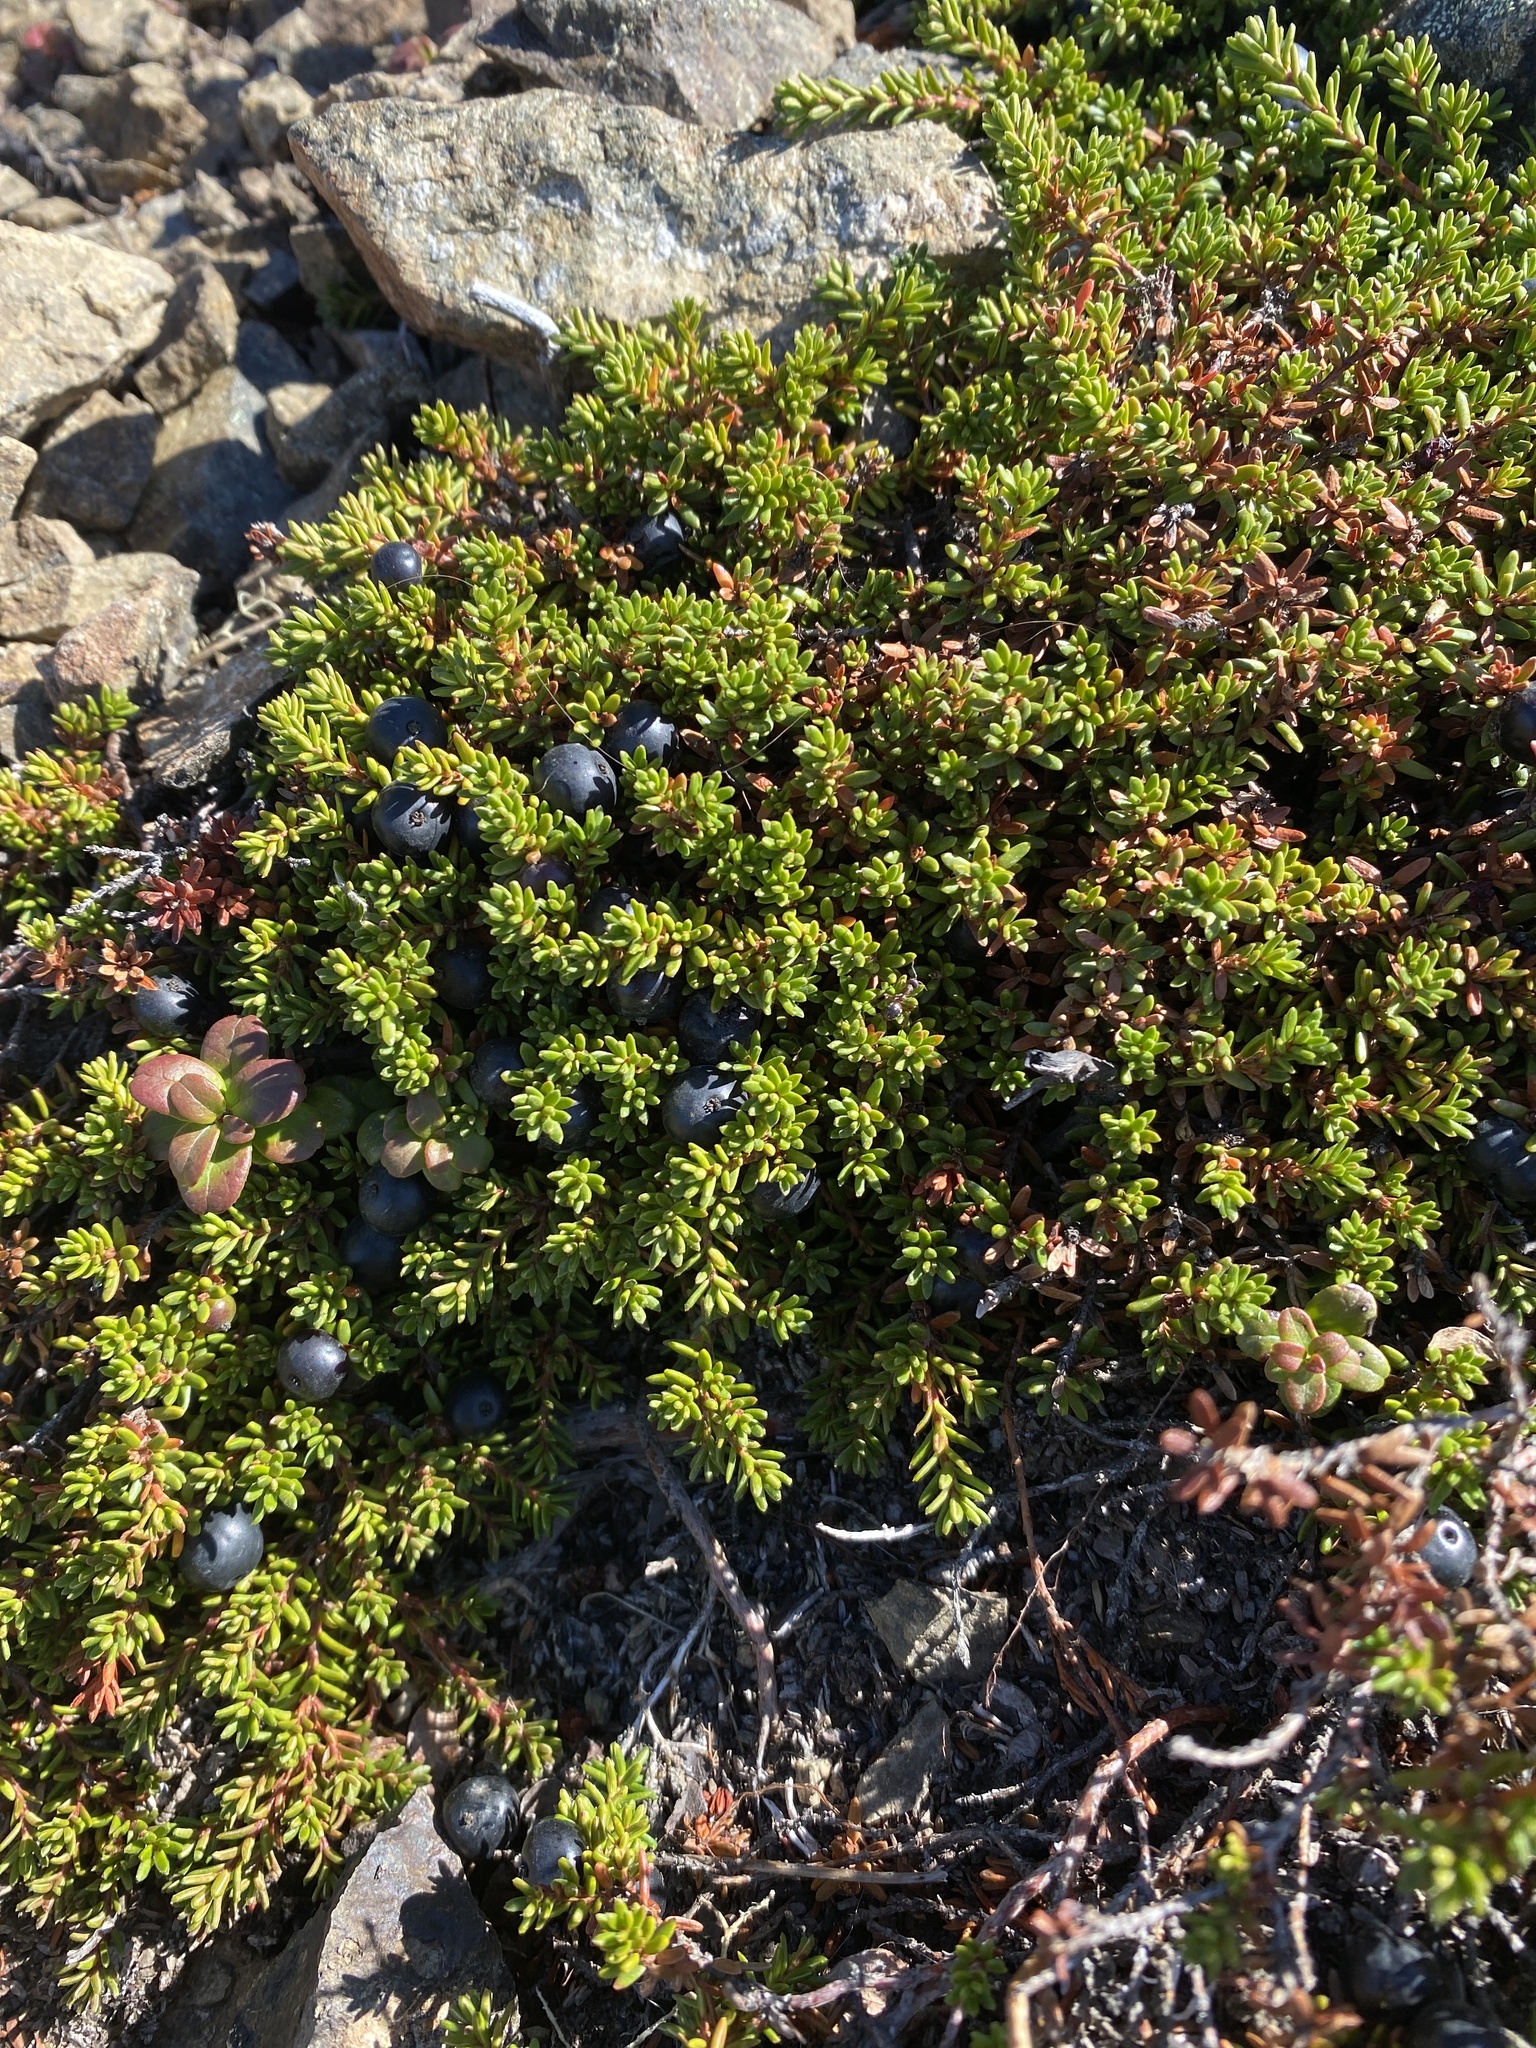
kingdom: Plantae
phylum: Tracheophyta
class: Magnoliopsida
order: Ericales
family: Ericaceae
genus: Empetrum
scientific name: Empetrum nigrum
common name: Black crowberry
